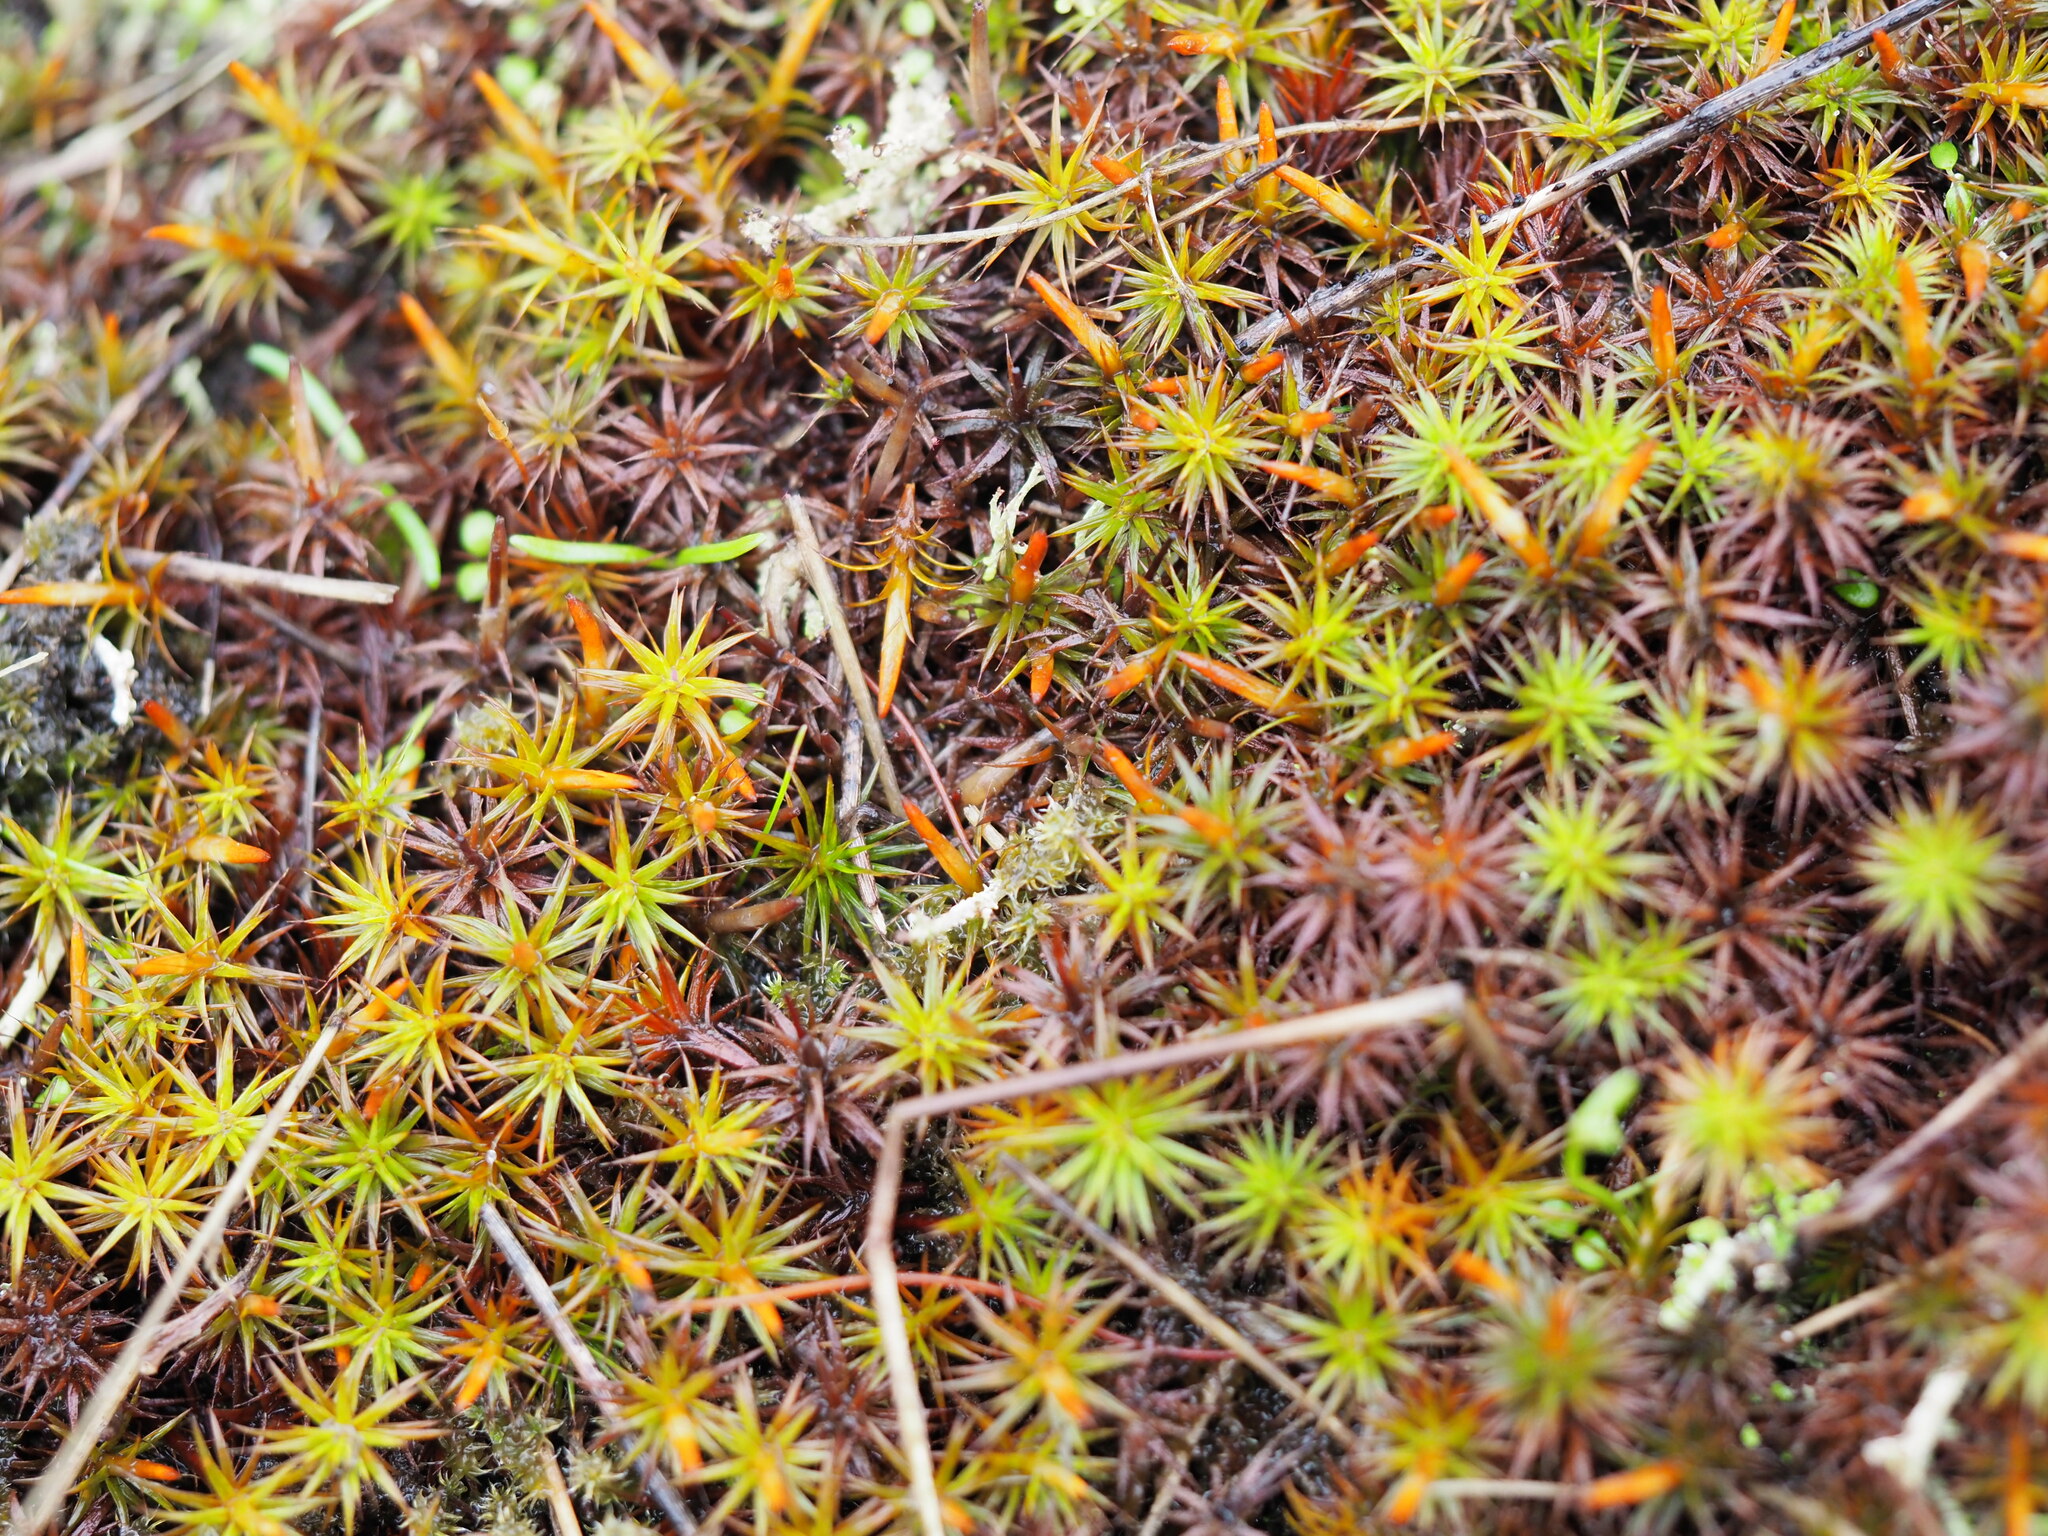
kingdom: Plantae
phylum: Bryophyta
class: Polytrichopsida
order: Polytrichales
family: Polytrichaceae
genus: Polytrichum
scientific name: Polytrichum juniperinum
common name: Juniper haircap moss
